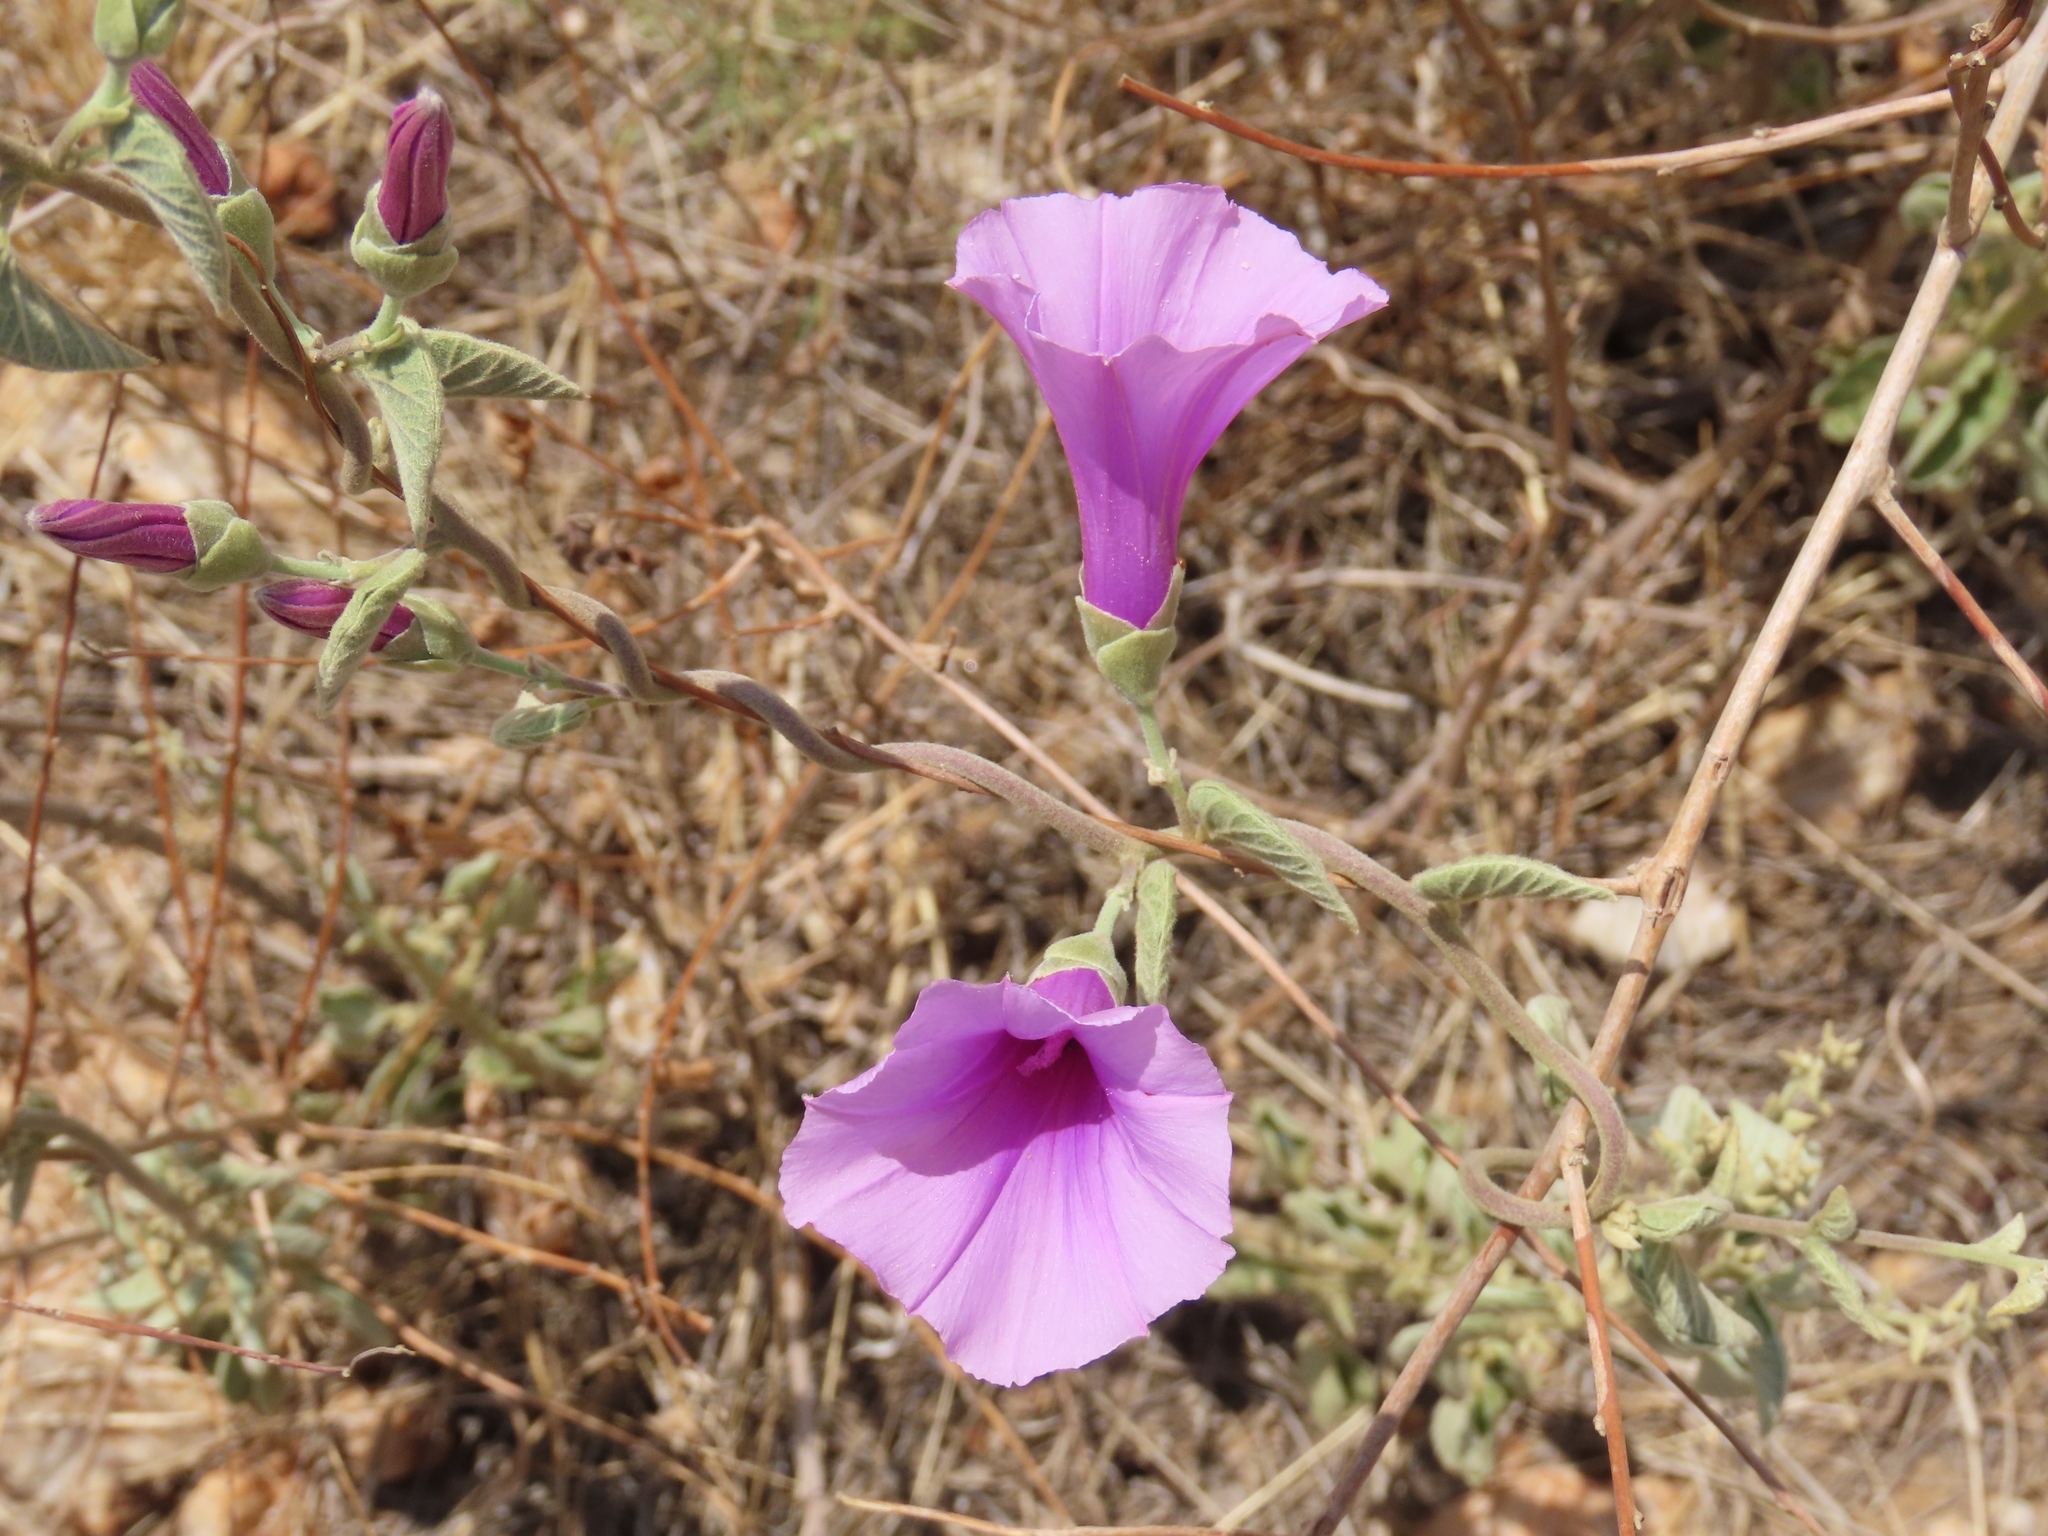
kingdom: Plantae
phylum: Tracheophyta
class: Magnoliopsida
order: Solanales
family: Convolvulaceae
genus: Ipomoea
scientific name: Ipomoea holubii
